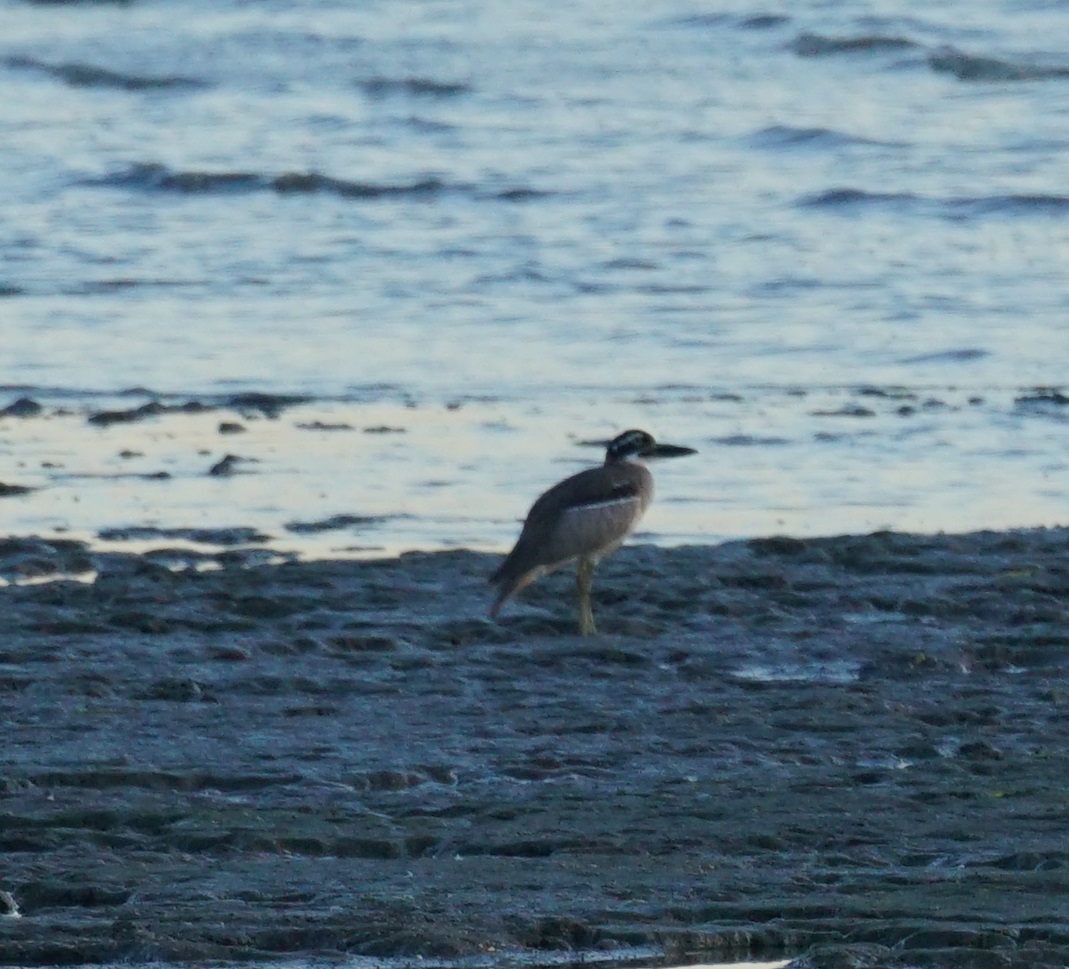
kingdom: Animalia
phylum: Chordata
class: Aves
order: Charadriiformes
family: Burhinidae
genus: Esacus
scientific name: Esacus magnirostris
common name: Beach stone-curlew
